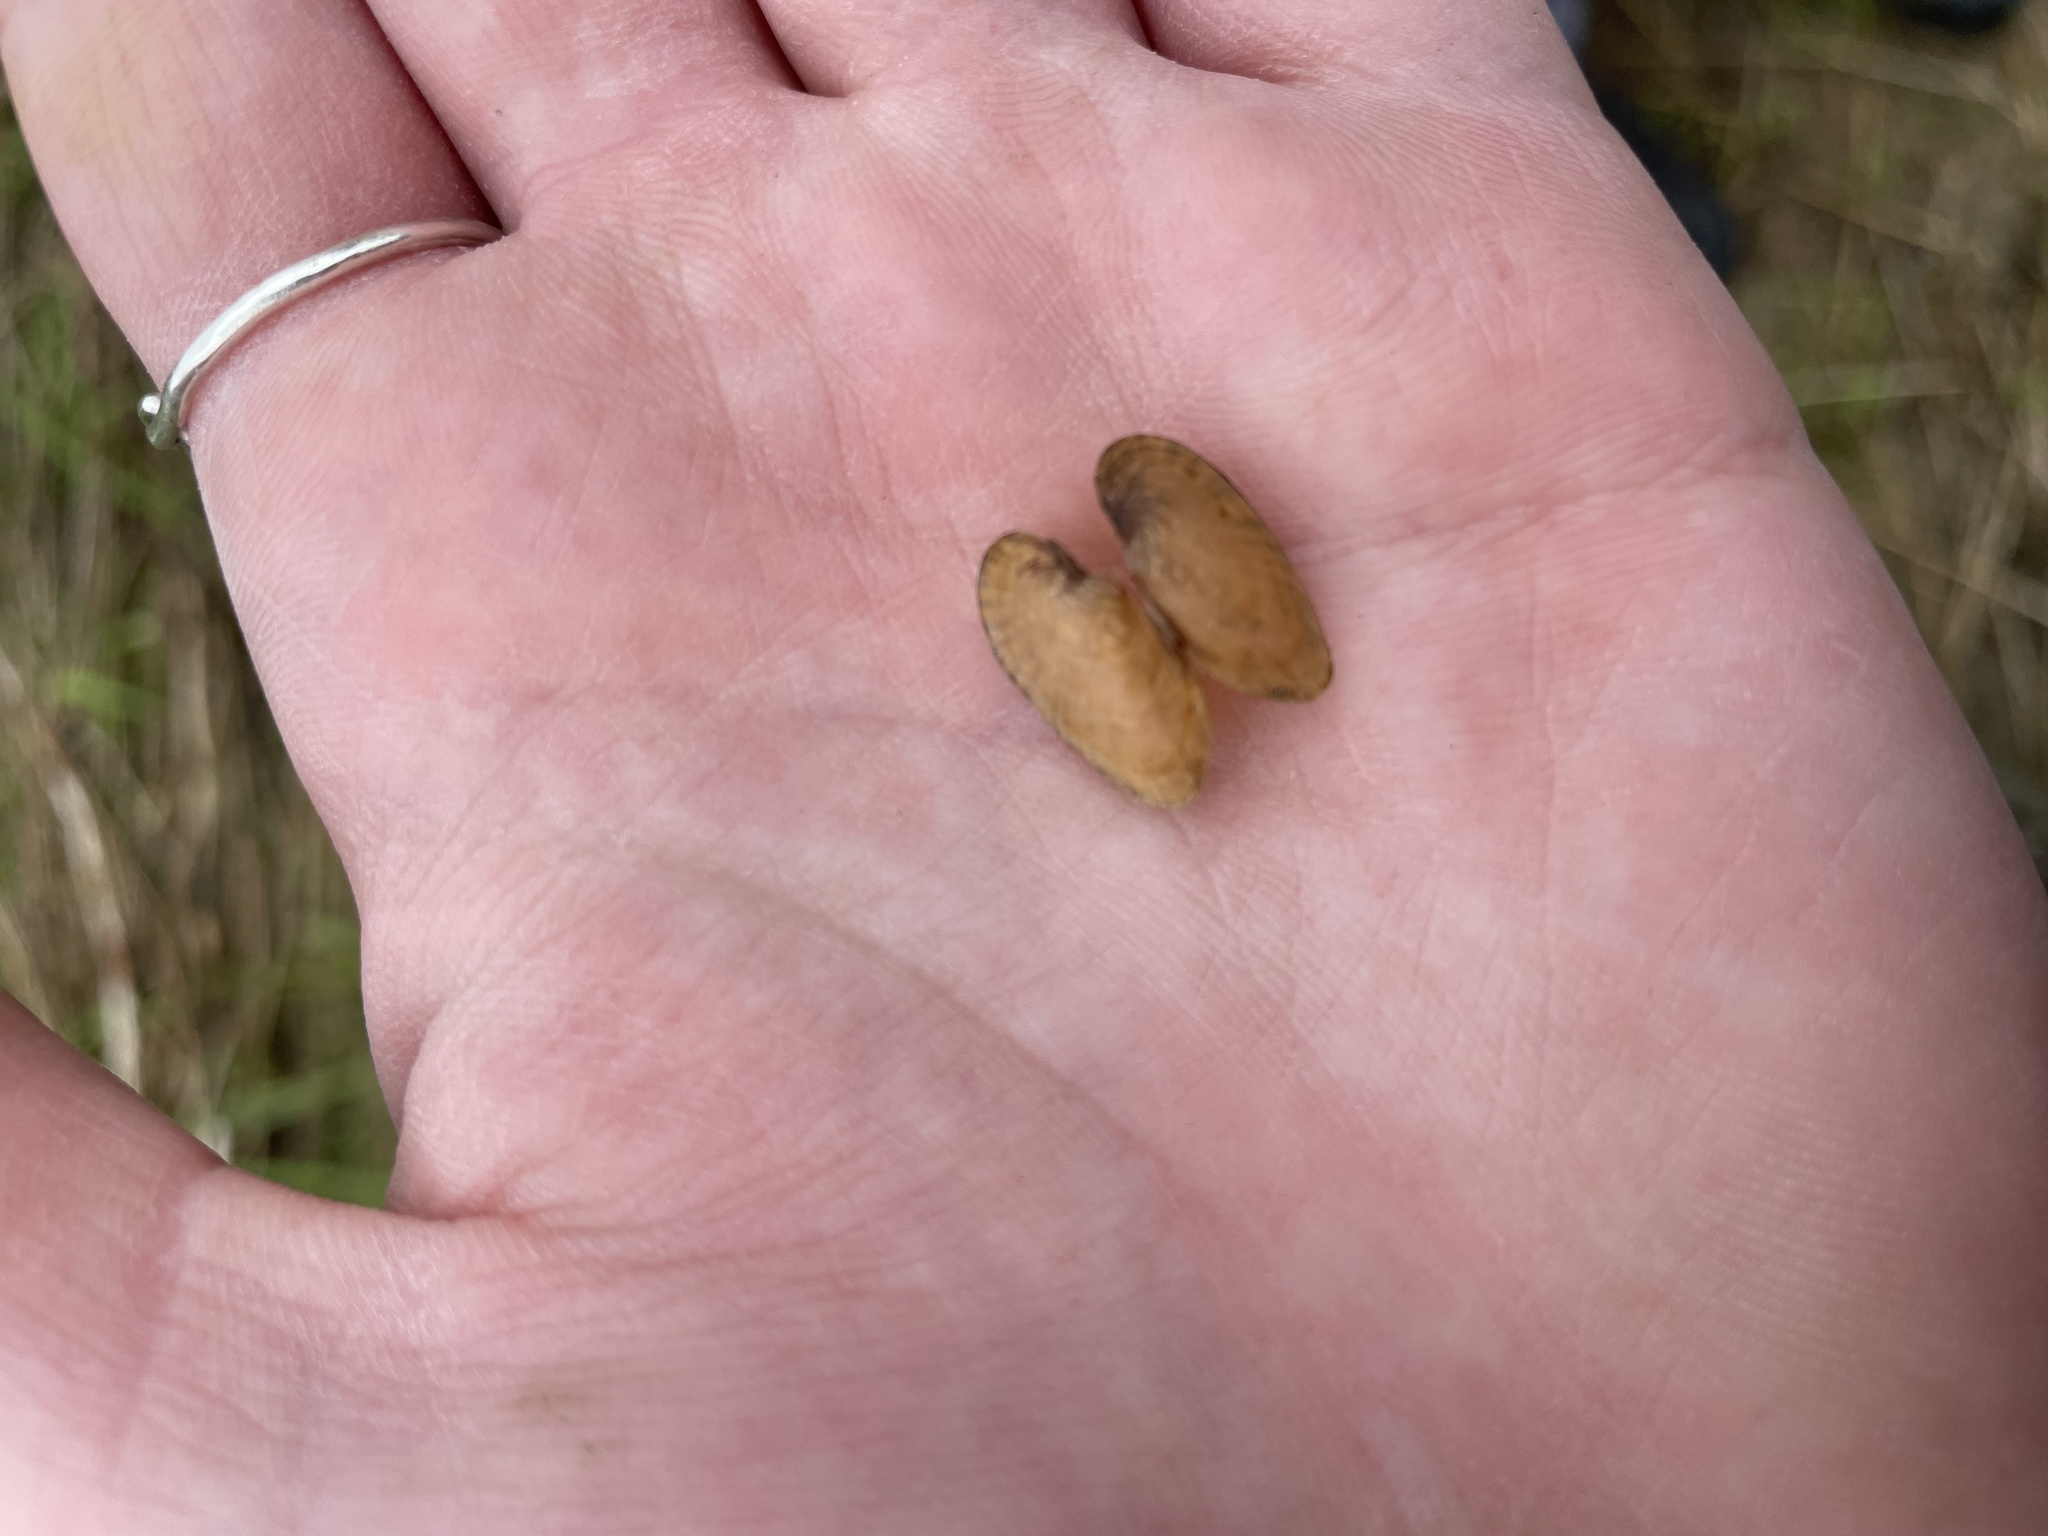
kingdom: Animalia
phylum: Mollusca
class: Bivalvia
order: Unionida
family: Unionidae
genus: Lampsilis
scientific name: Lampsilis fasciola
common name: Wavyrayed lampmussel
